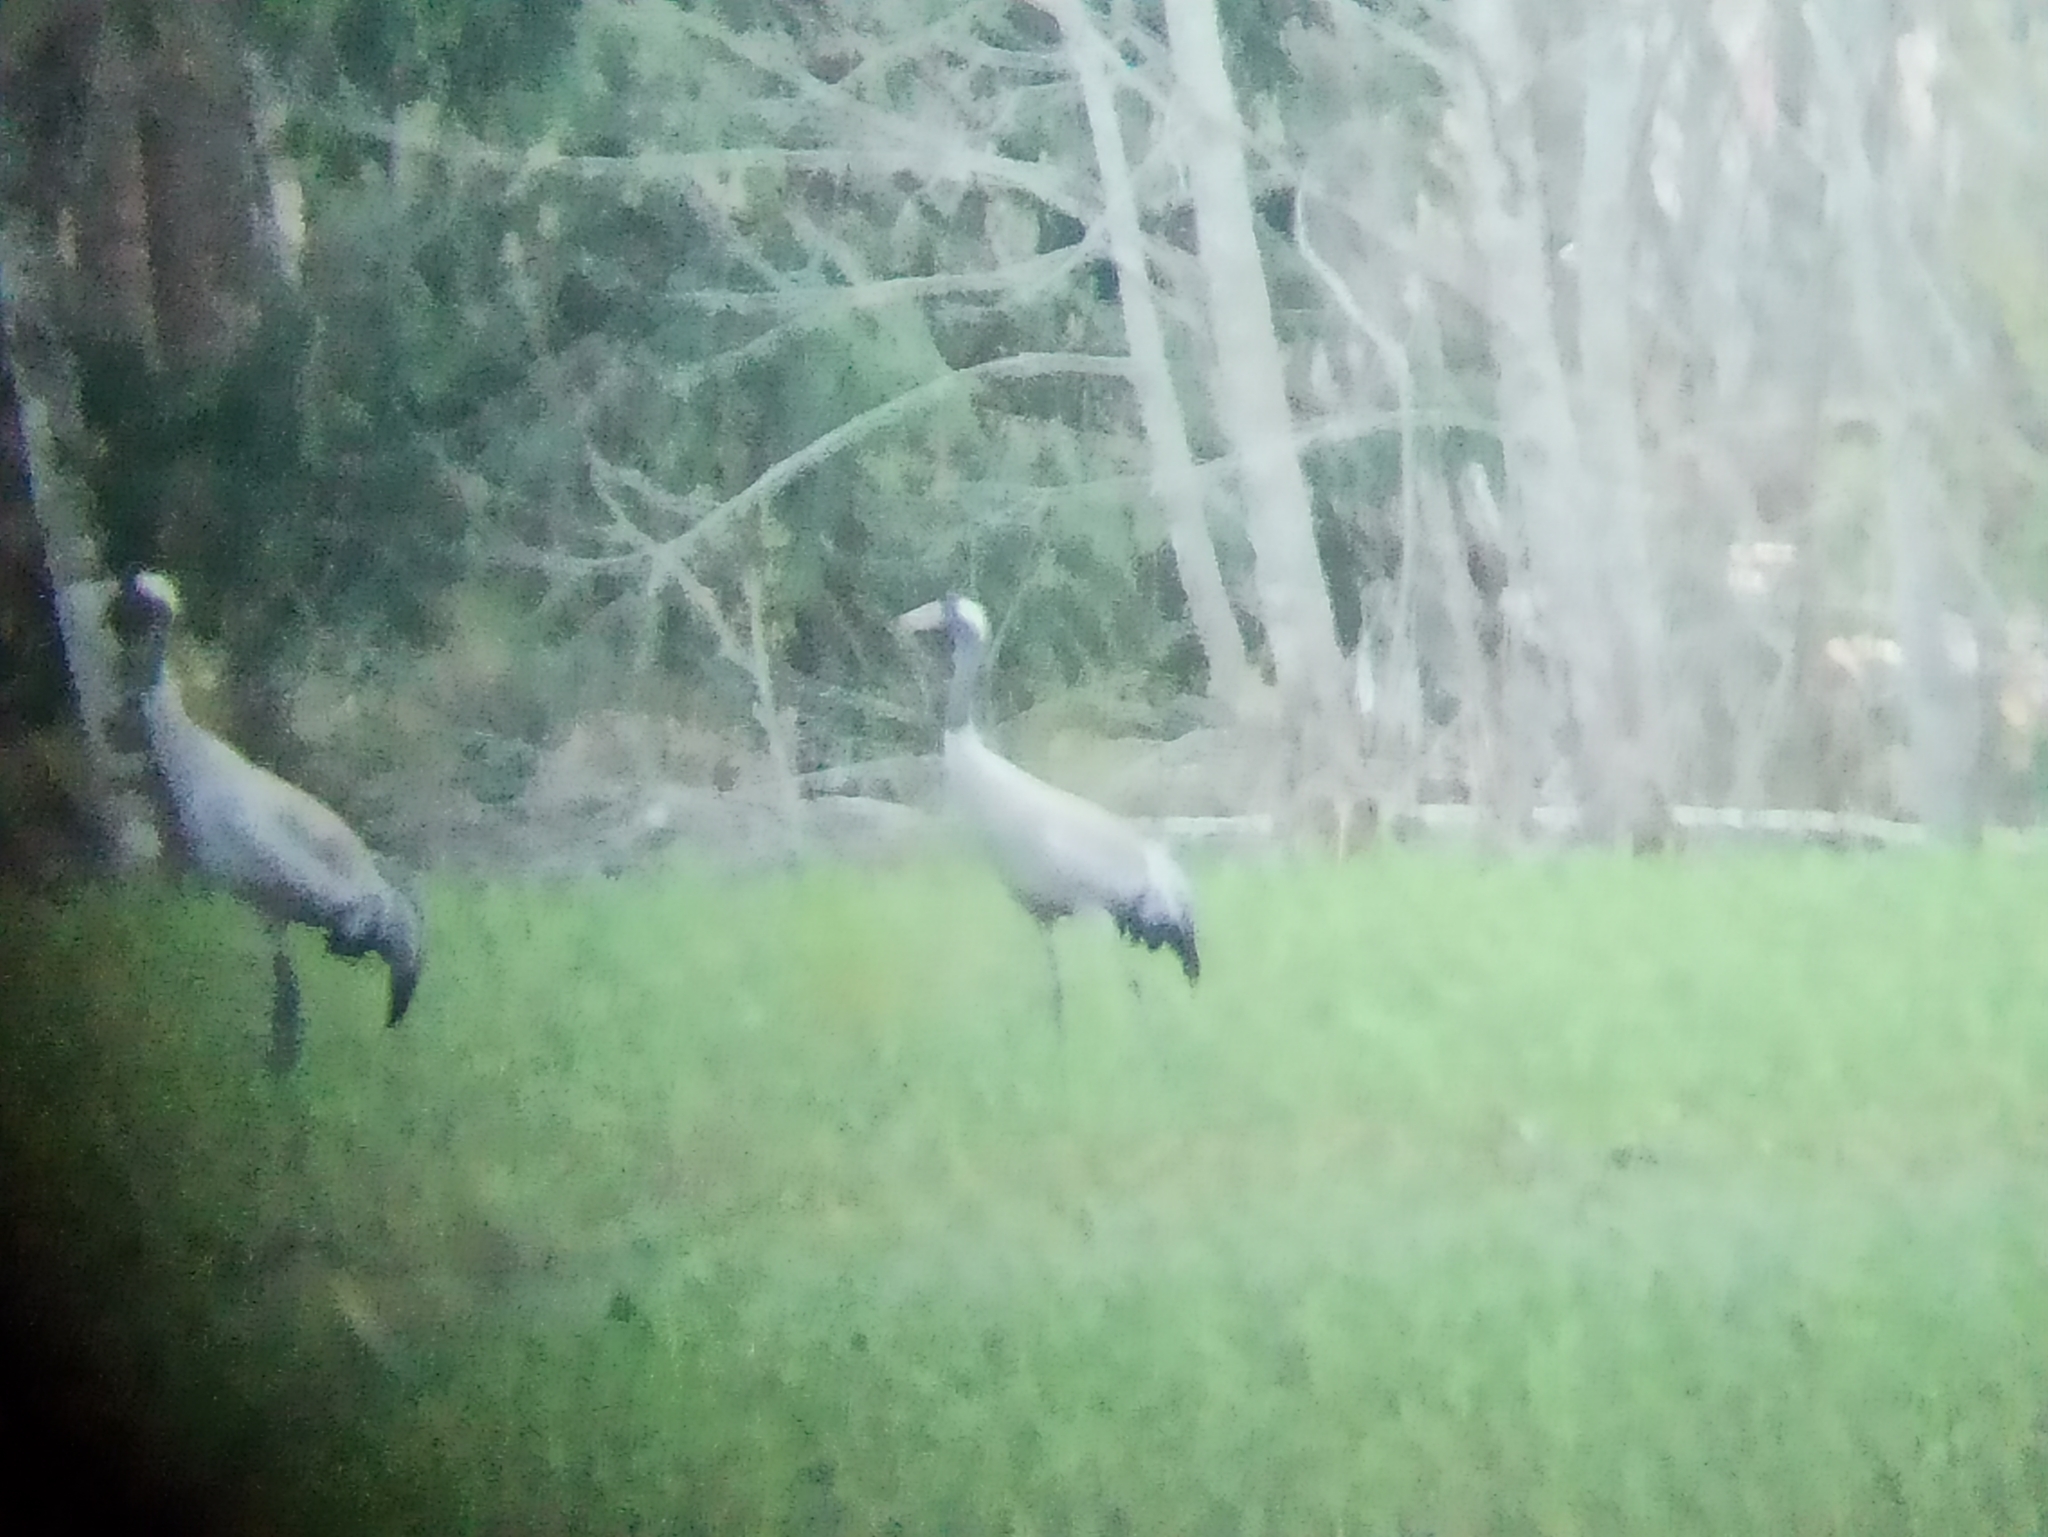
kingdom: Animalia
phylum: Chordata
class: Aves
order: Gruiformes
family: Gruidae
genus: Grus
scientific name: Grus grus
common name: Common crane
